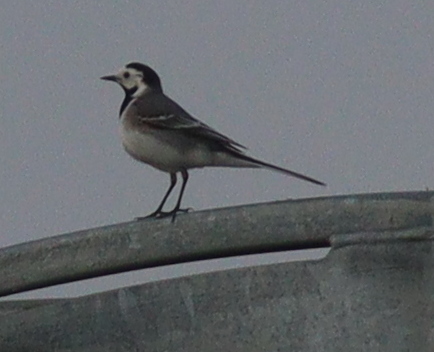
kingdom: Animalia
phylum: Chordata
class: Aves
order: Passeriformes
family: Motacillidae
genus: Motacilla
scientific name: Motacilla alba
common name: White wagtail
